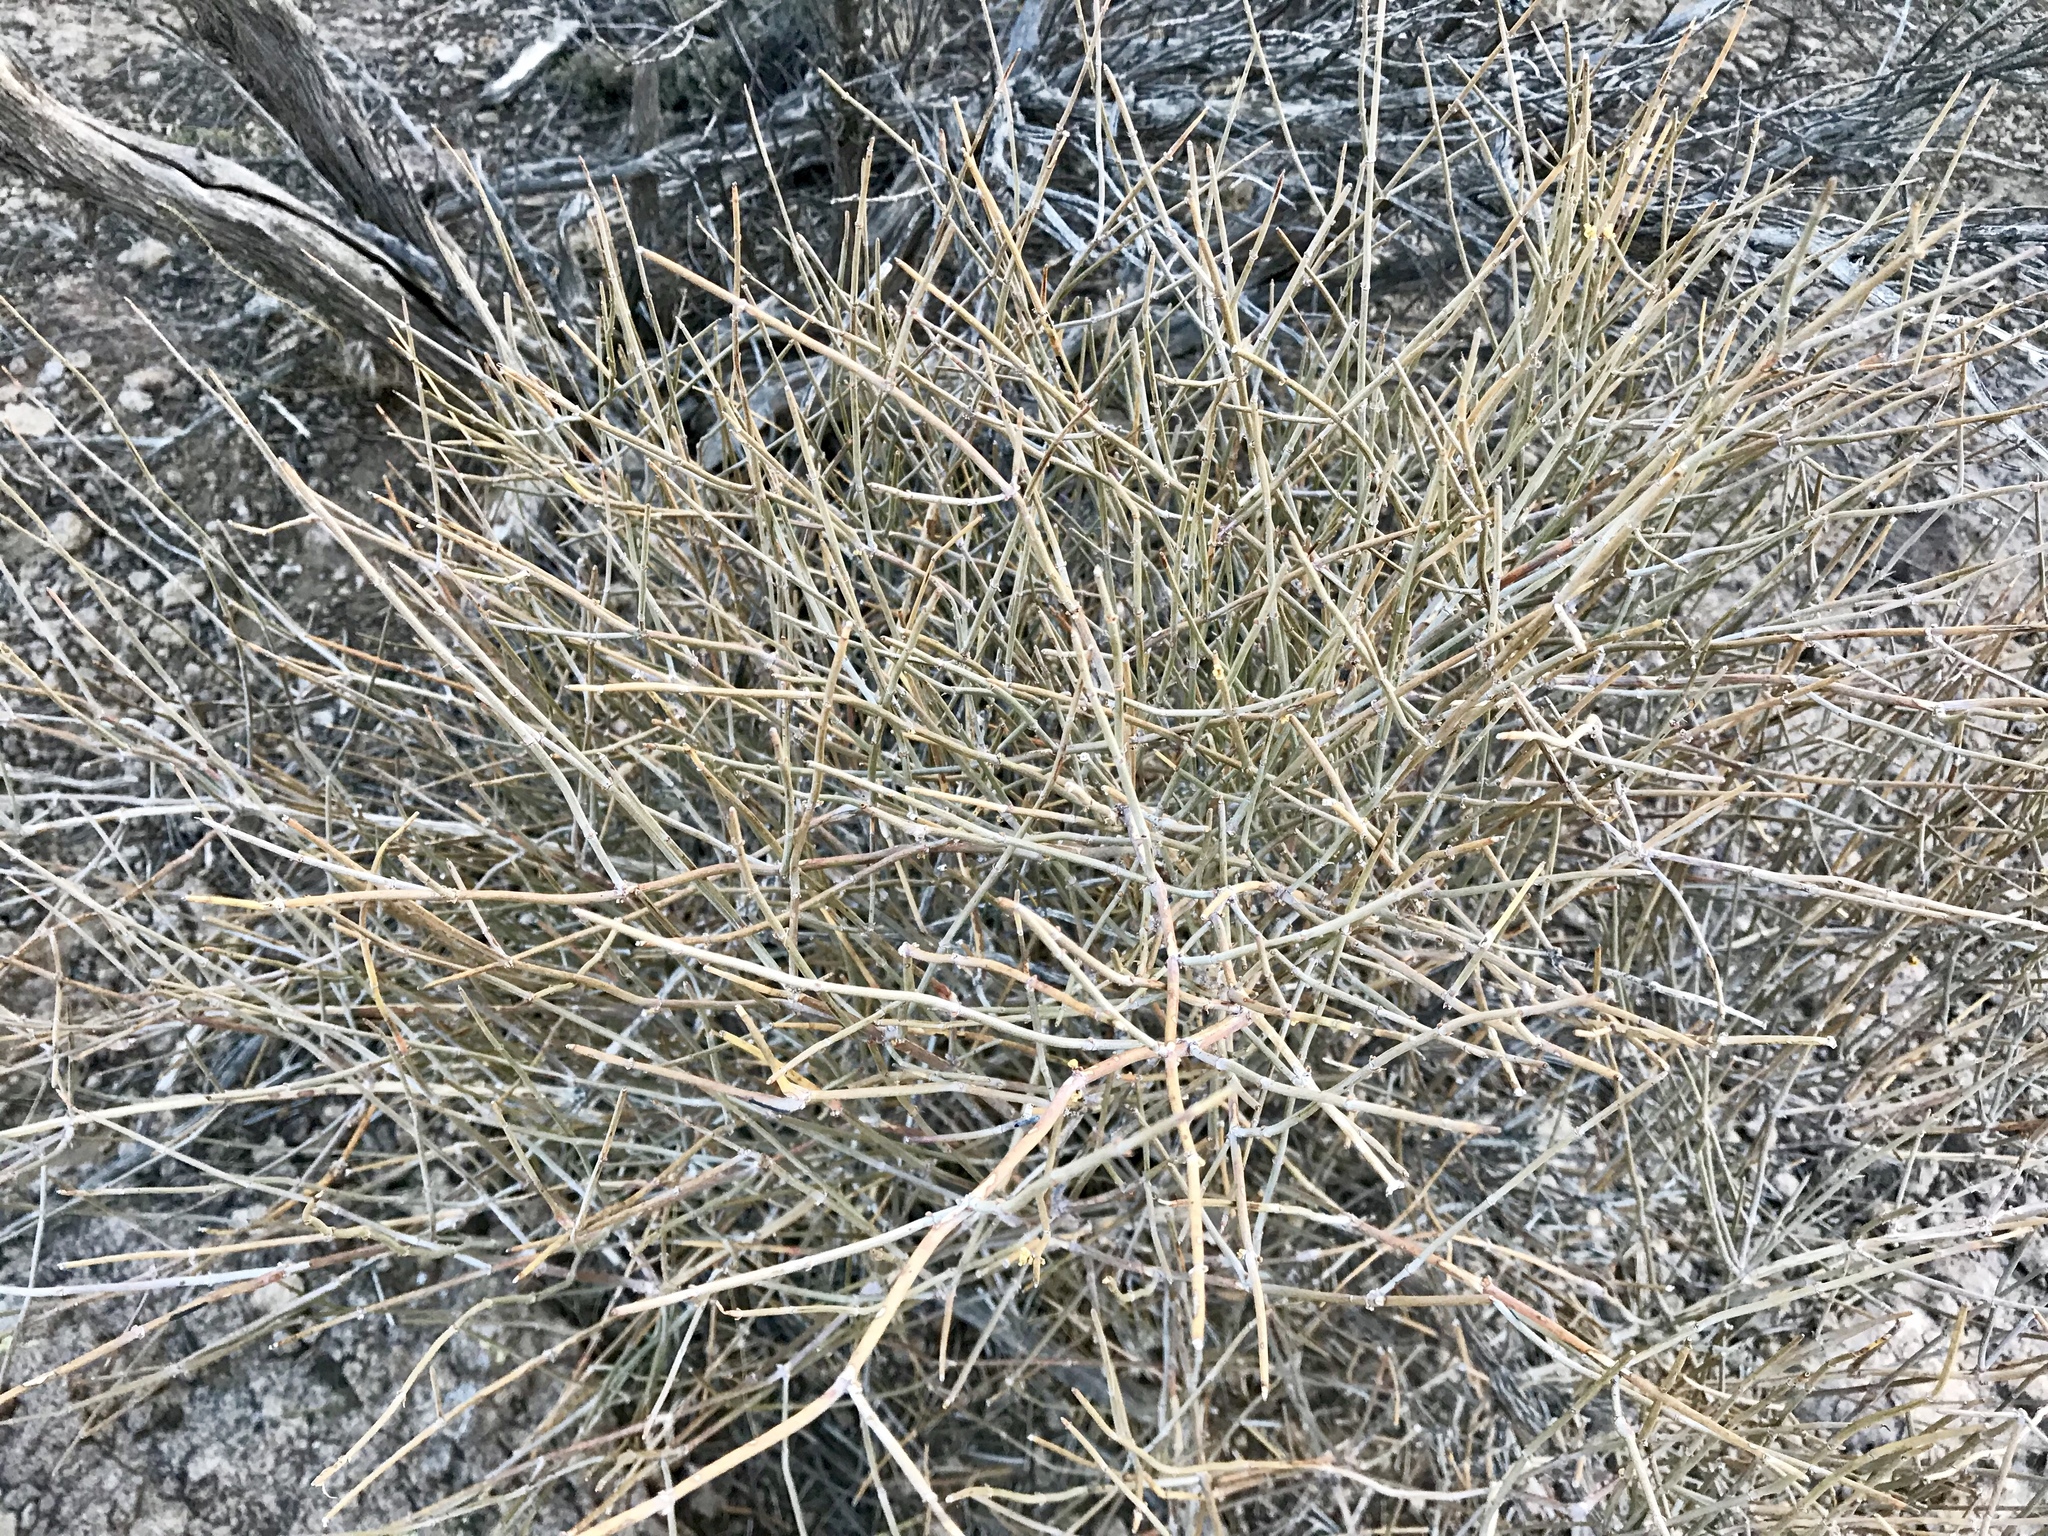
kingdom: Plantae
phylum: Tracheophyta
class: Gnetopsida
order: Ephedrales
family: Ephedraceae
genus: Ephedra
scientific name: Ephedra nevadensis
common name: Gray ephedra
